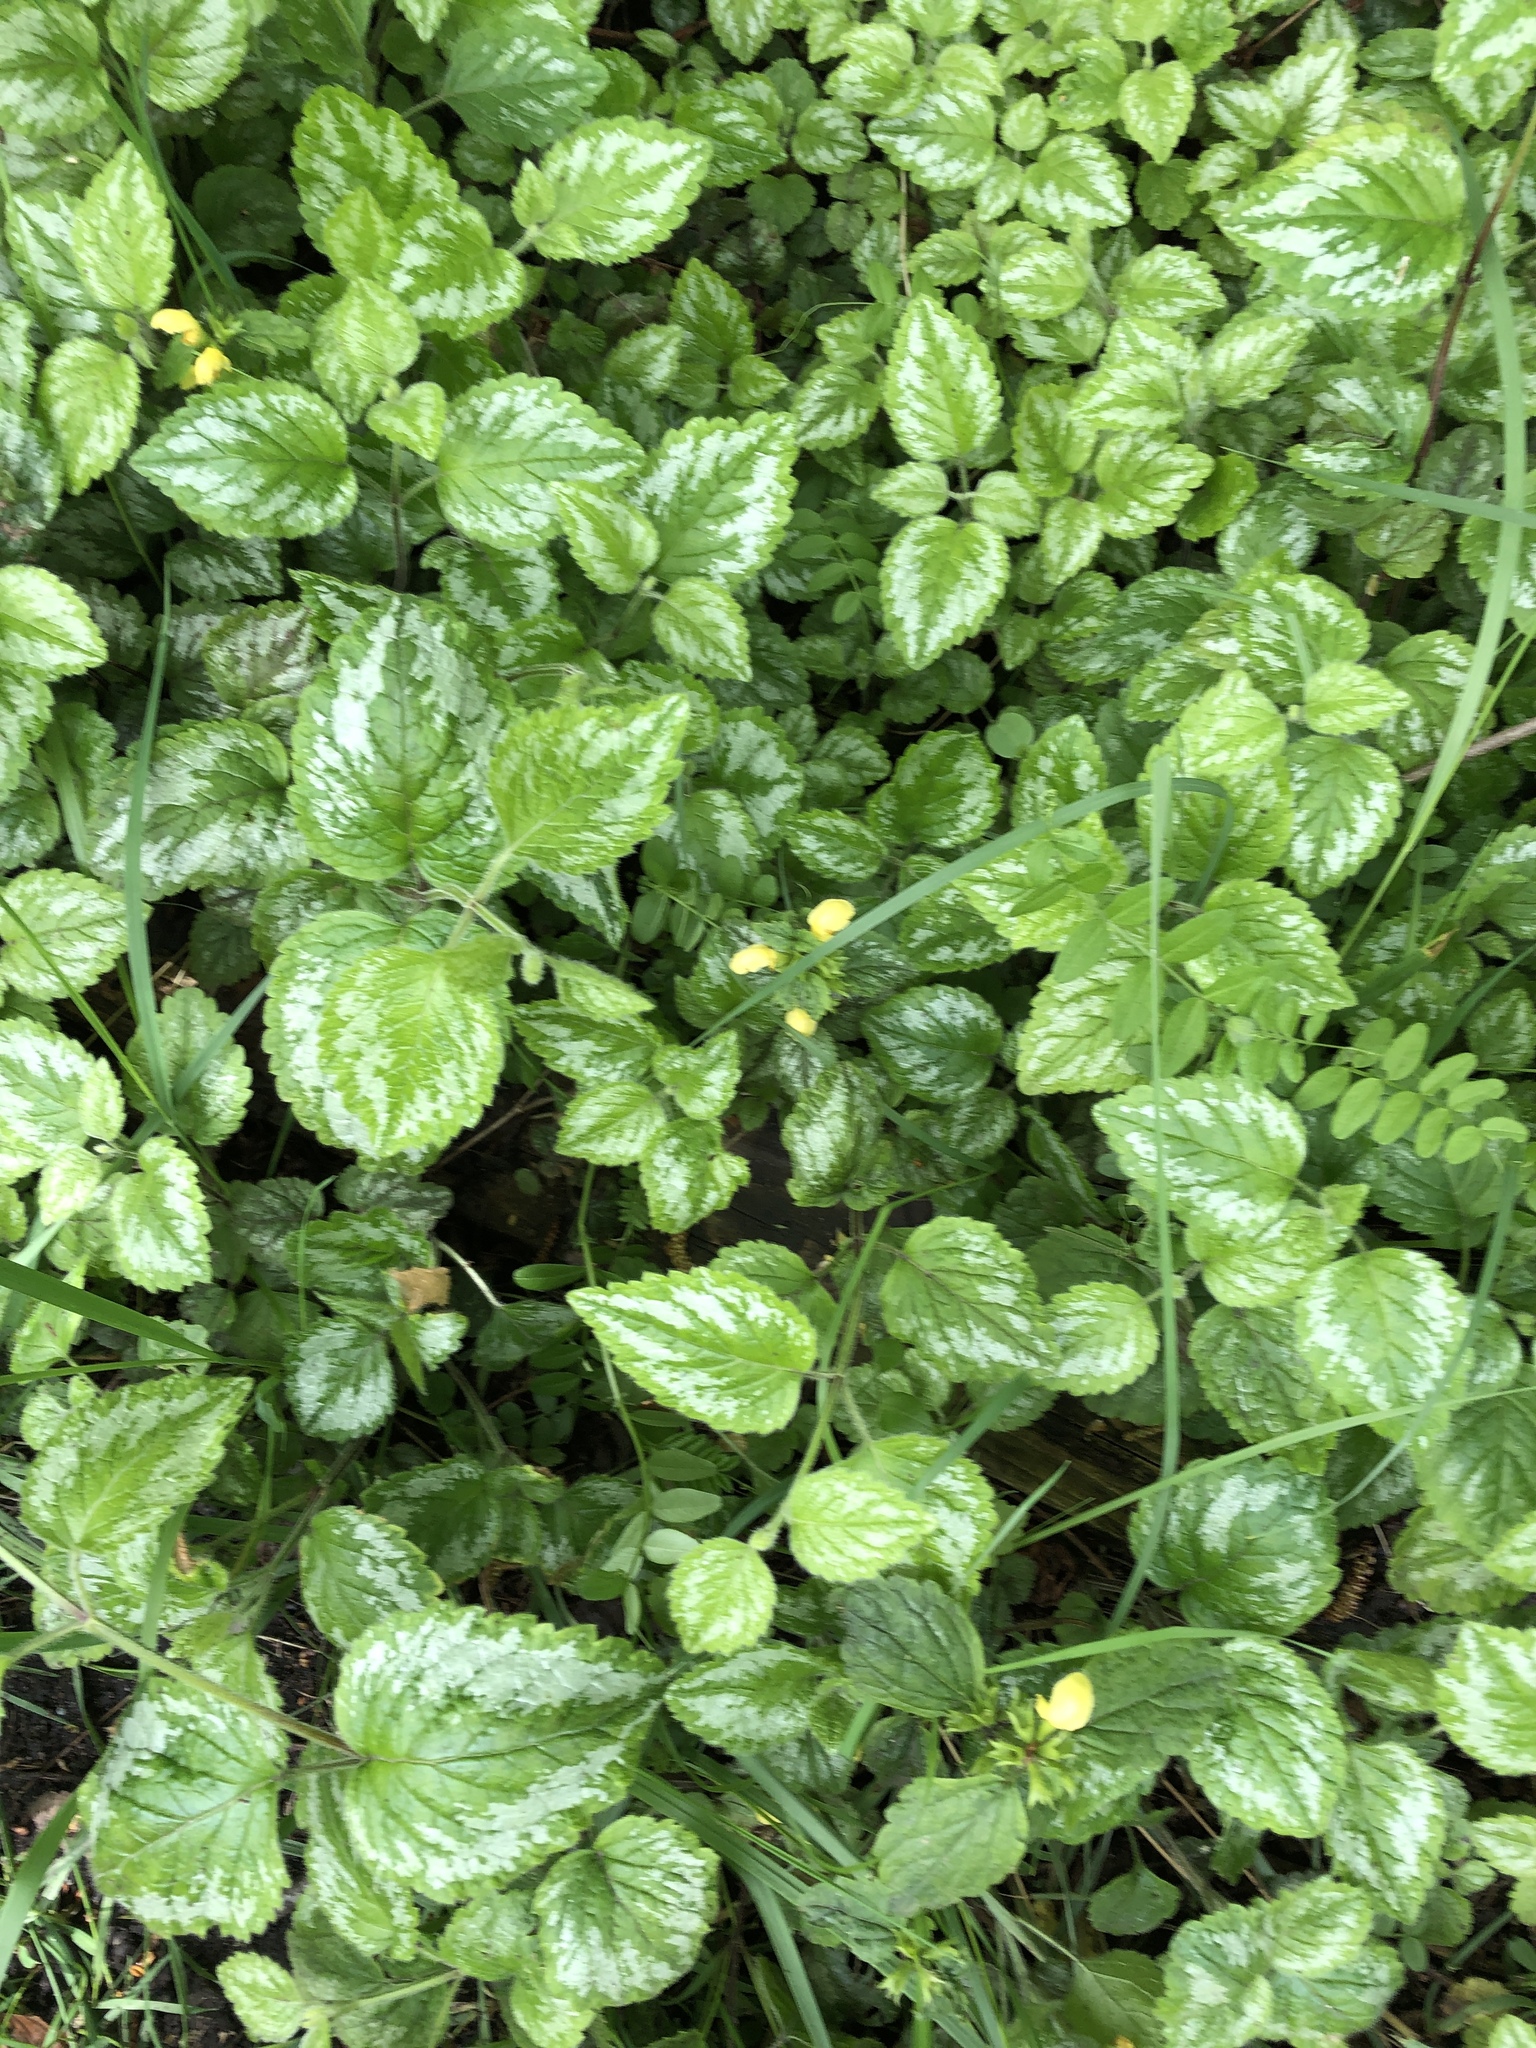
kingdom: Plantae
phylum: Tracheophyta
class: Magnoliopsida
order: Lamiales
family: Lamiaceae
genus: Lamium
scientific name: Lamium galeobdolon
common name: Yellow archangel
